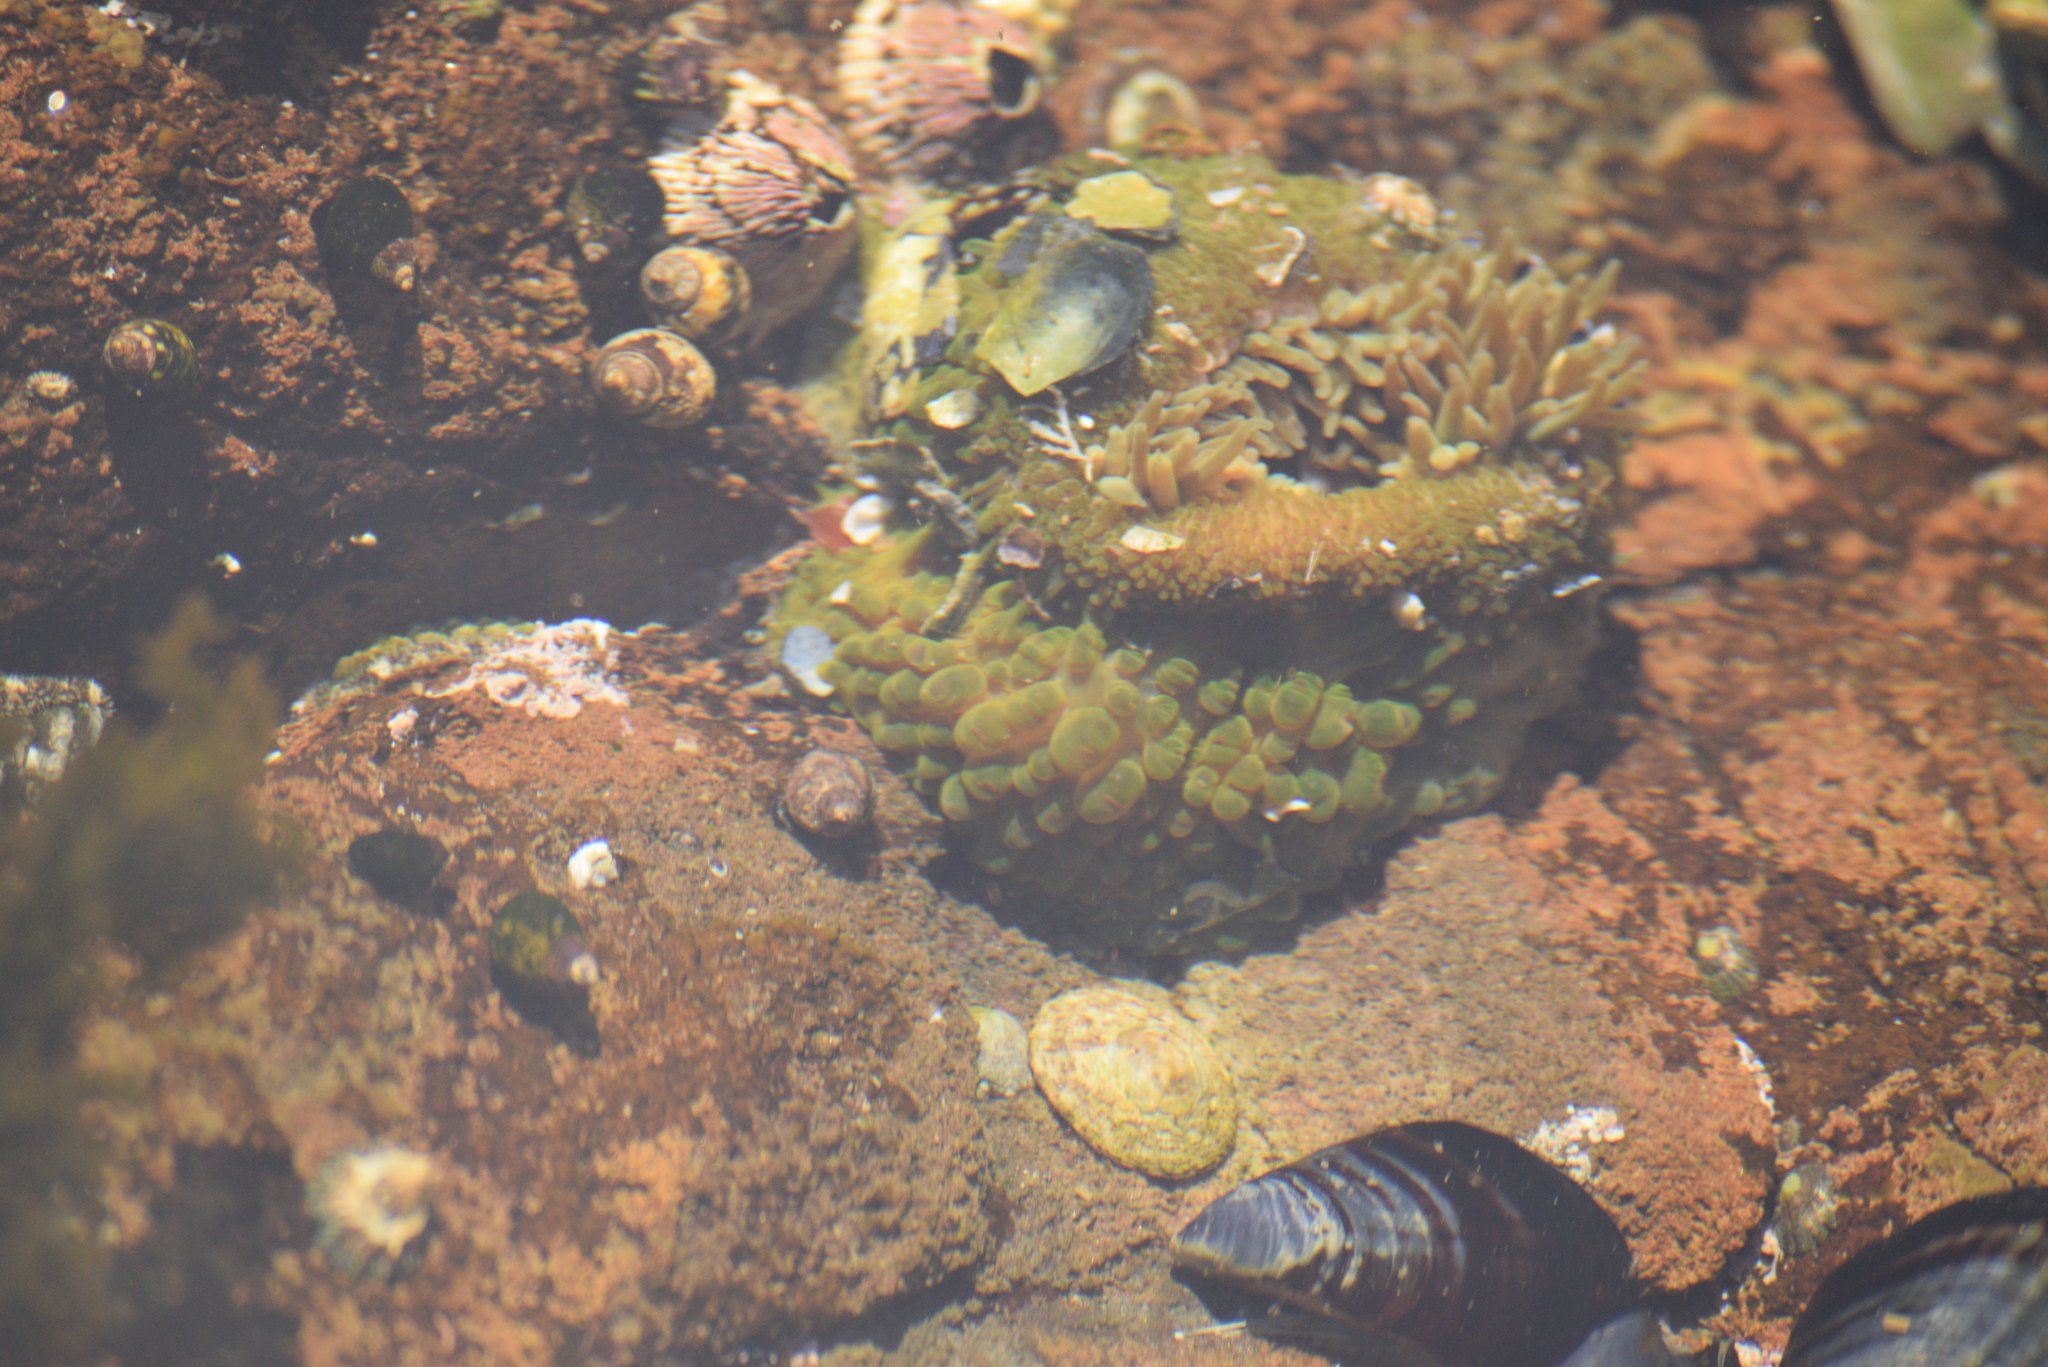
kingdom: Animalia
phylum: Cnidaria
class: Anthozoa
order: Actiniaria
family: Actiniidae
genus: Anthopleura
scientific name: Anthopleura elegantissima
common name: Clonal anemone
